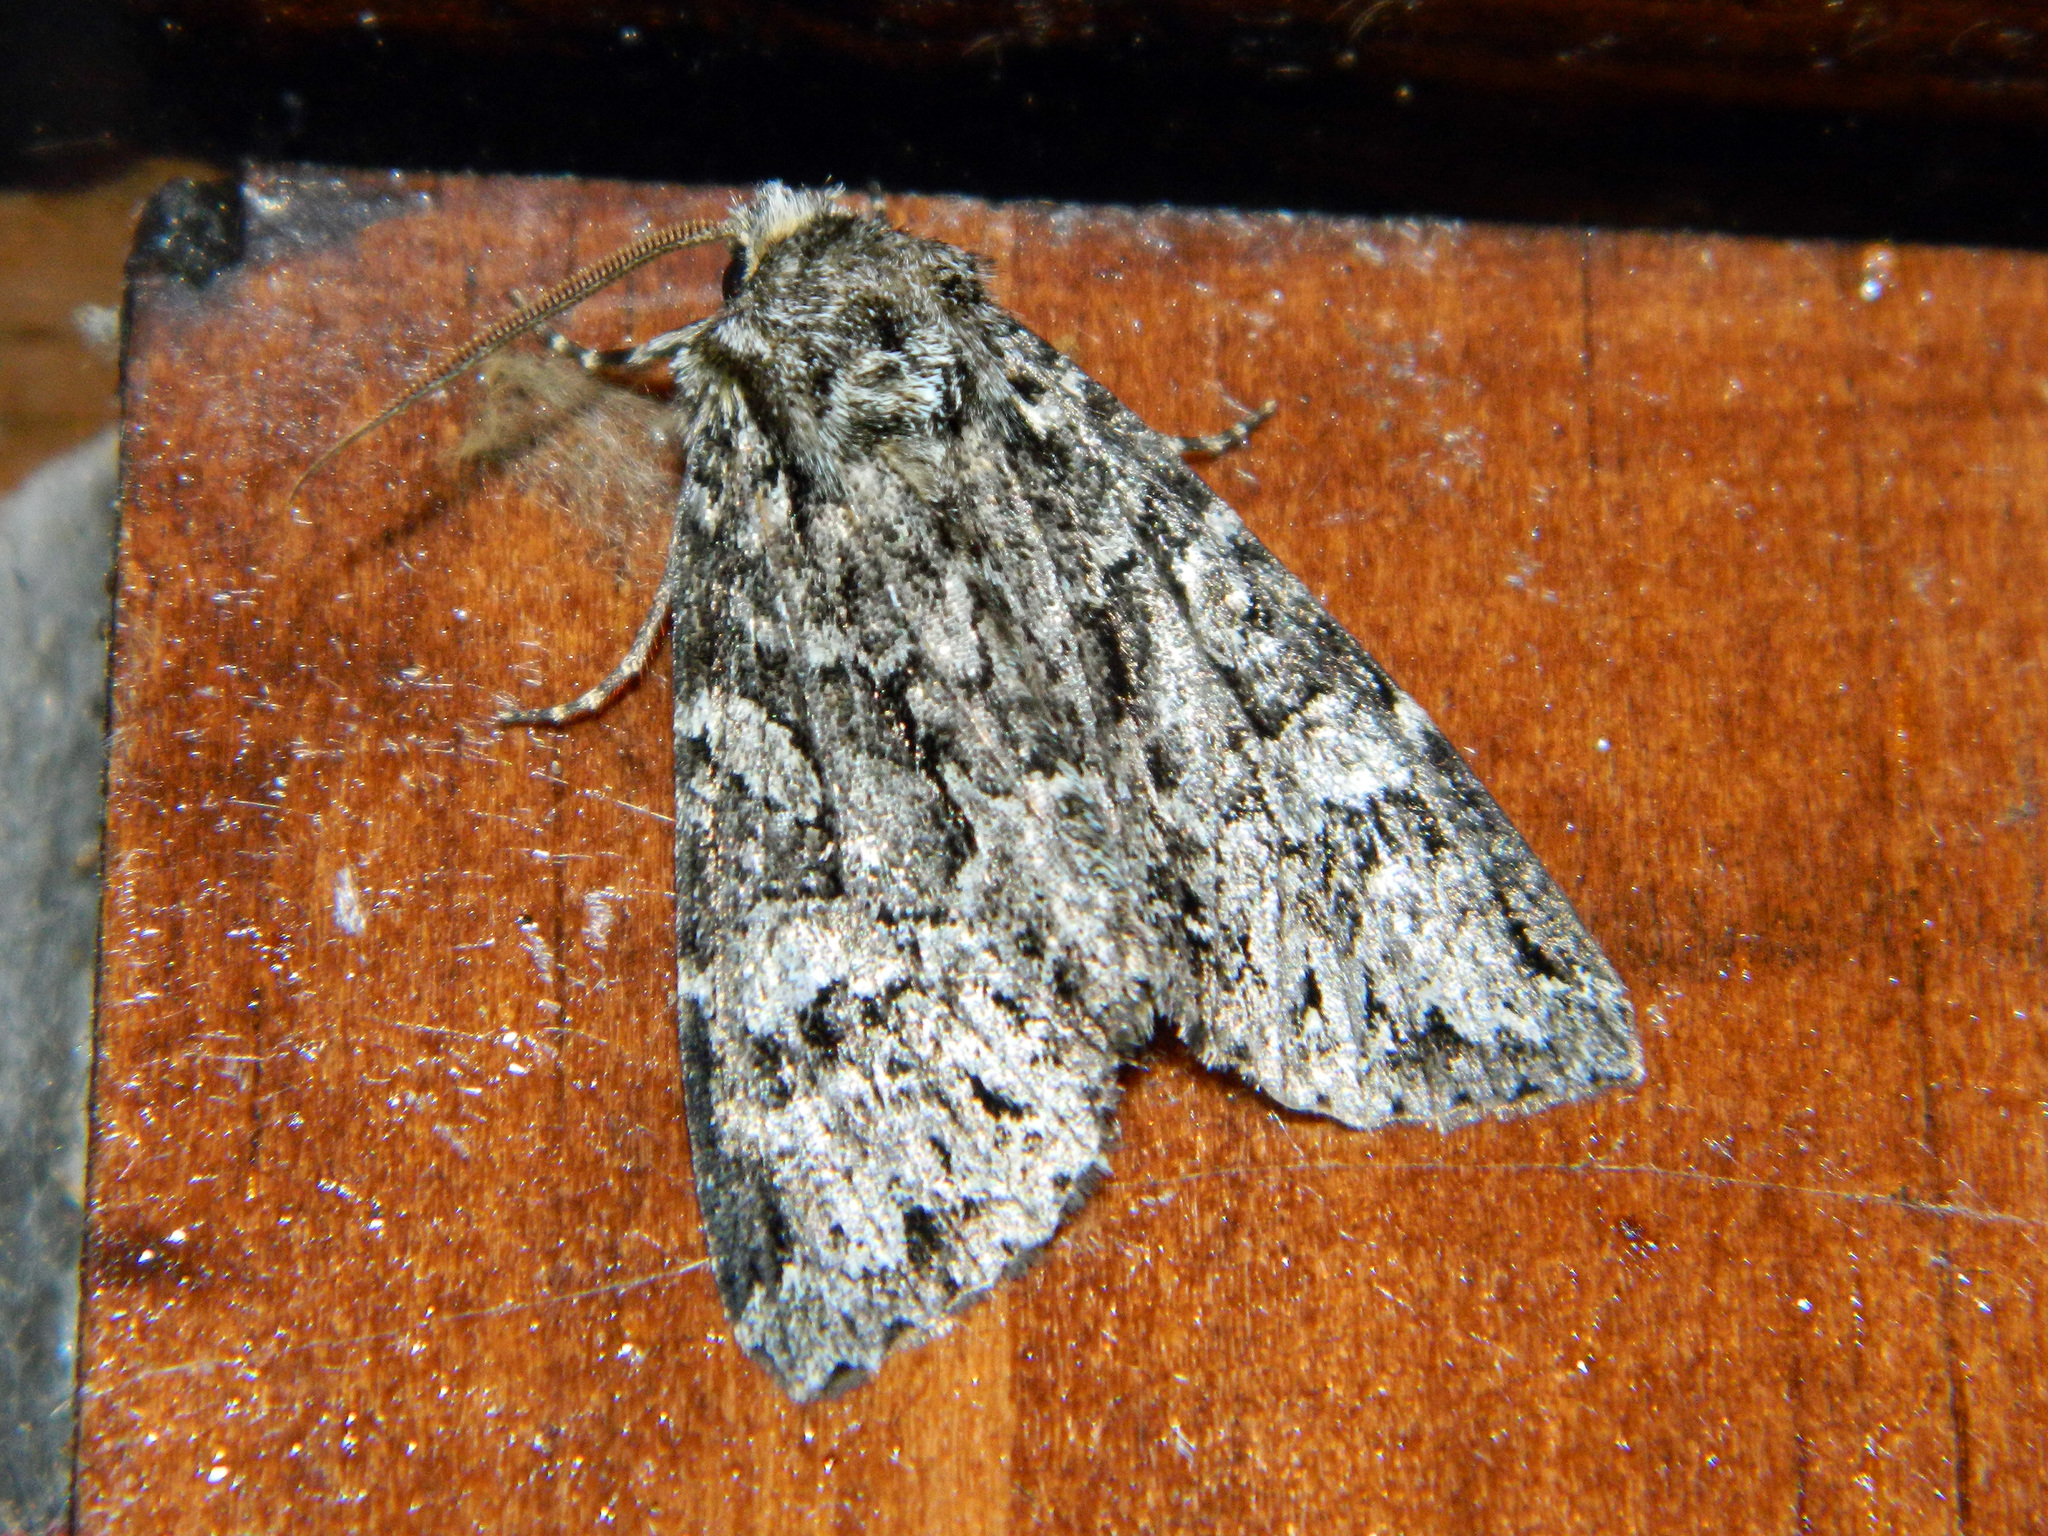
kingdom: Animalia
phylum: Arthropoda
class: Insecta
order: Lepidoptera
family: Noctuidae
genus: Platypolia
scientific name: Platypolia anceps
